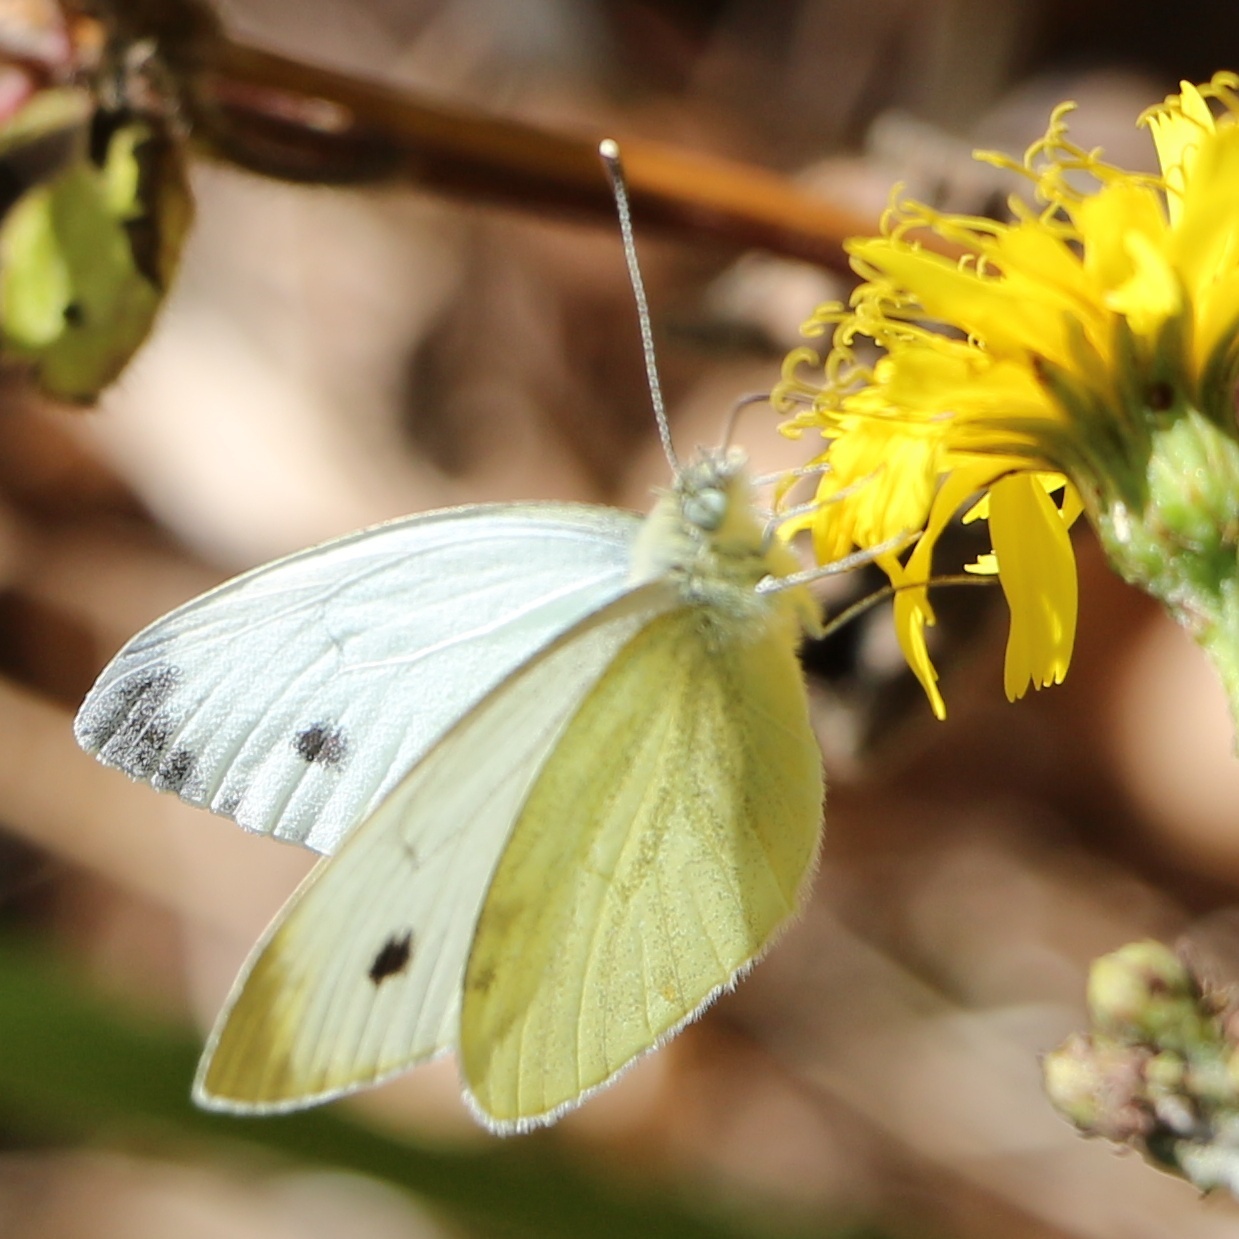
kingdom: Animalia
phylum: Arthropoda
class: Insecta
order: Lepidoptera
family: Pieridae
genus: Pieris
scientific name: Pieris napi
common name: Green-veined white
